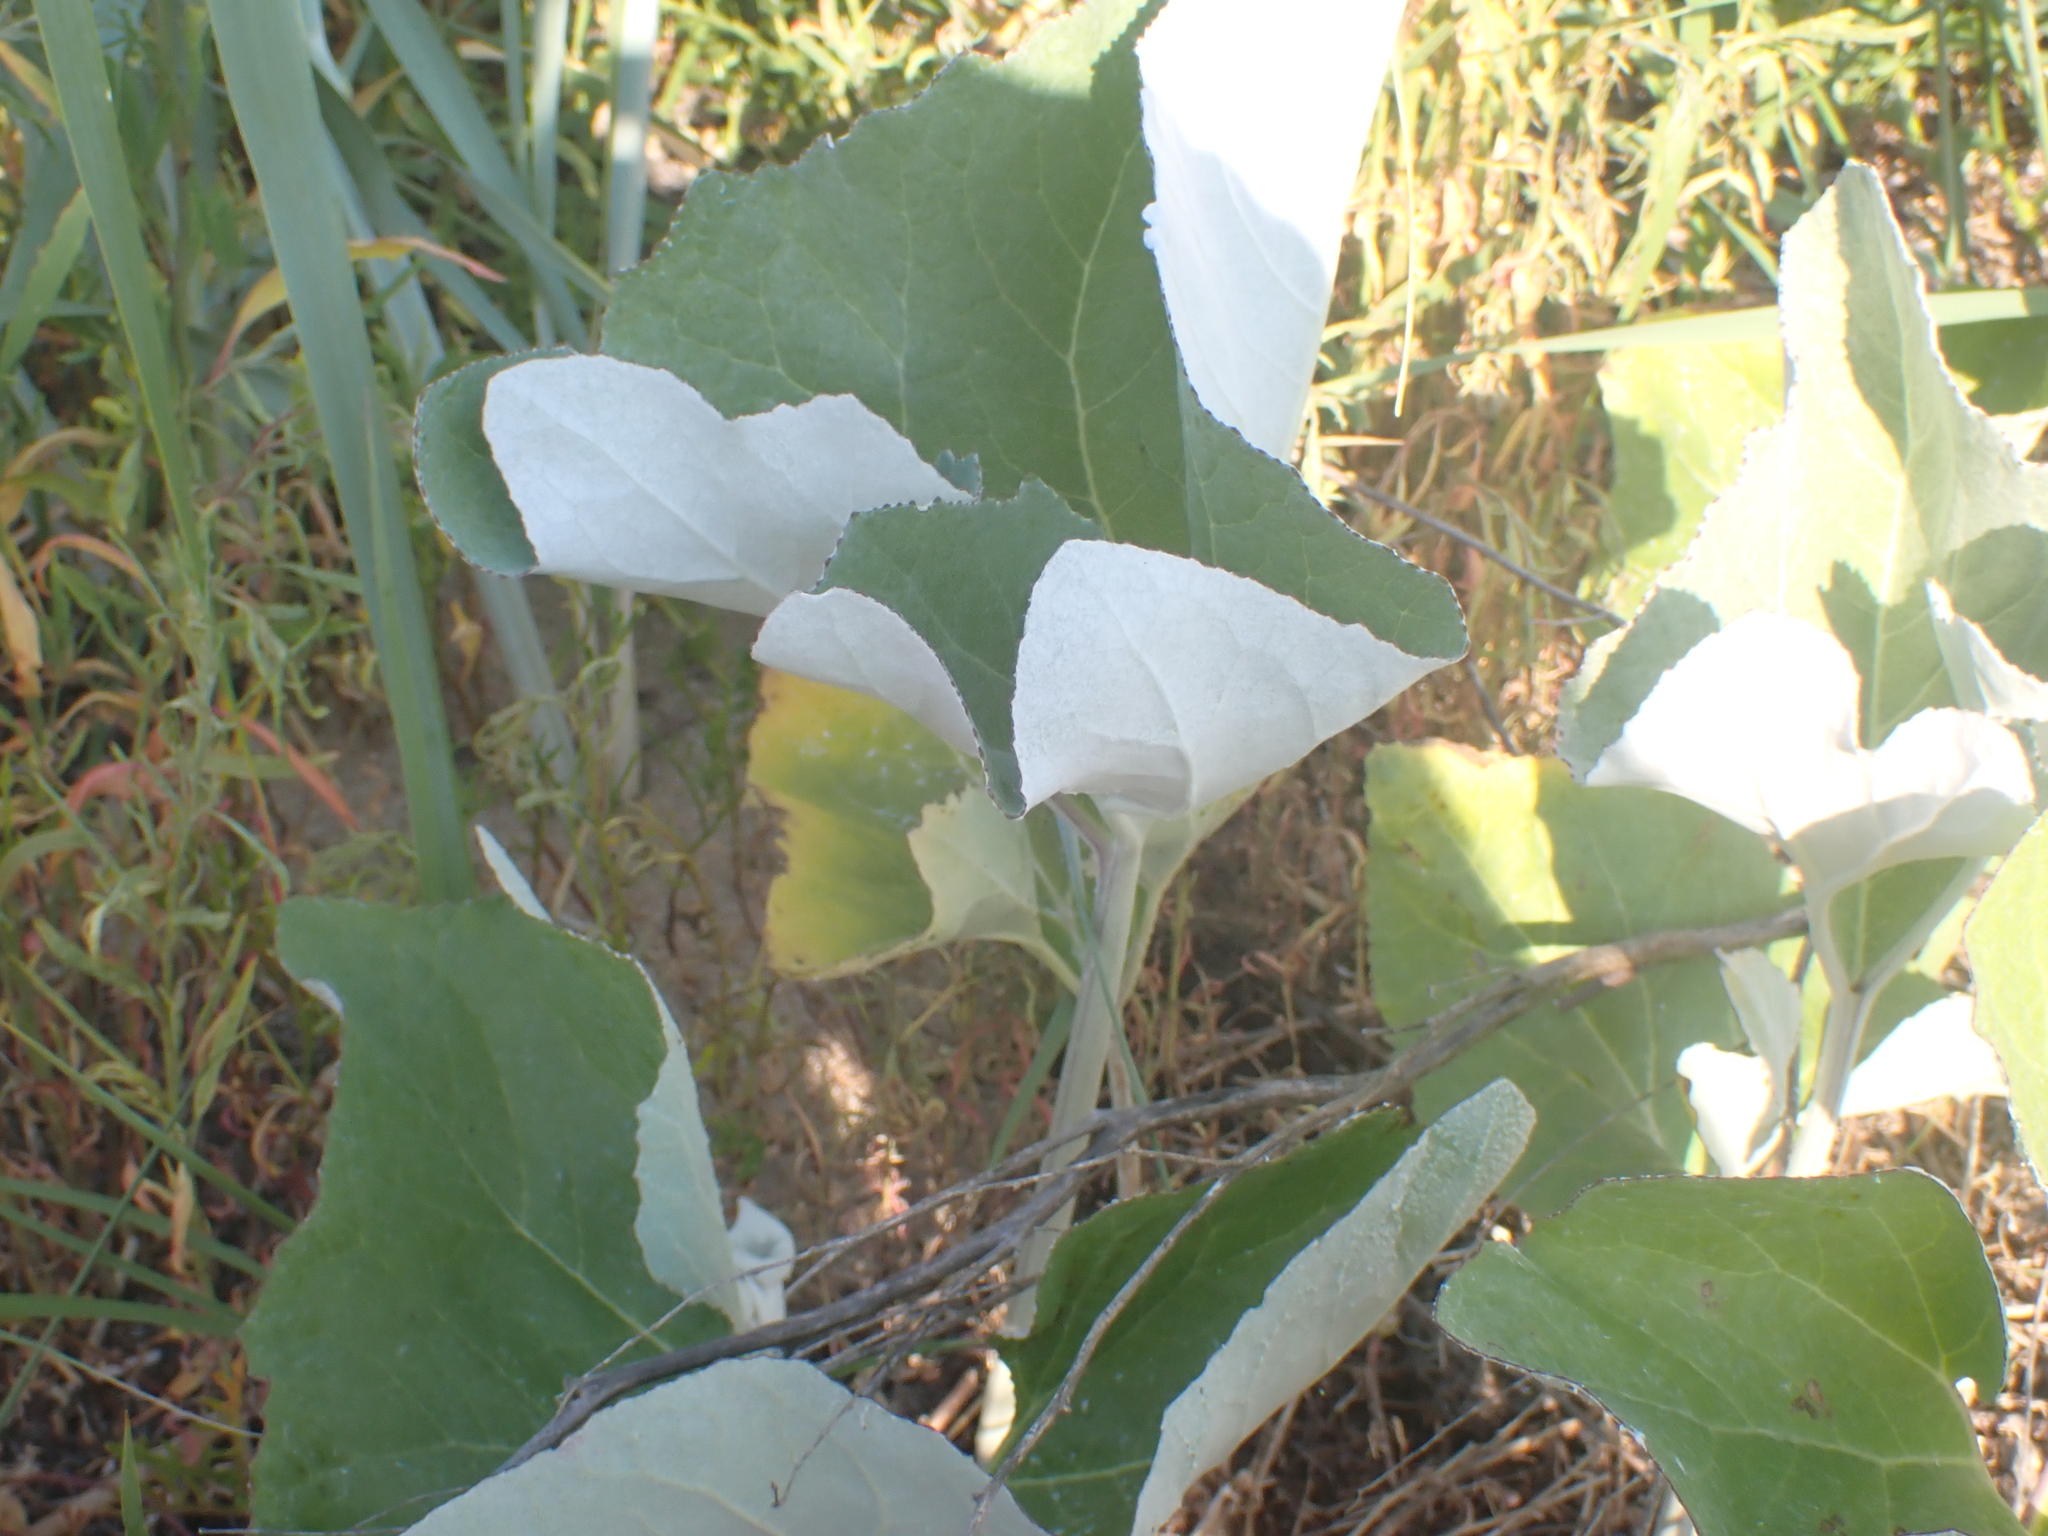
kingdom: Plantae
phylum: Tracheophyta
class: Magnoliopsida
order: Asterales
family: Asteraceae
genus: Petasites
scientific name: Petasites spurius
